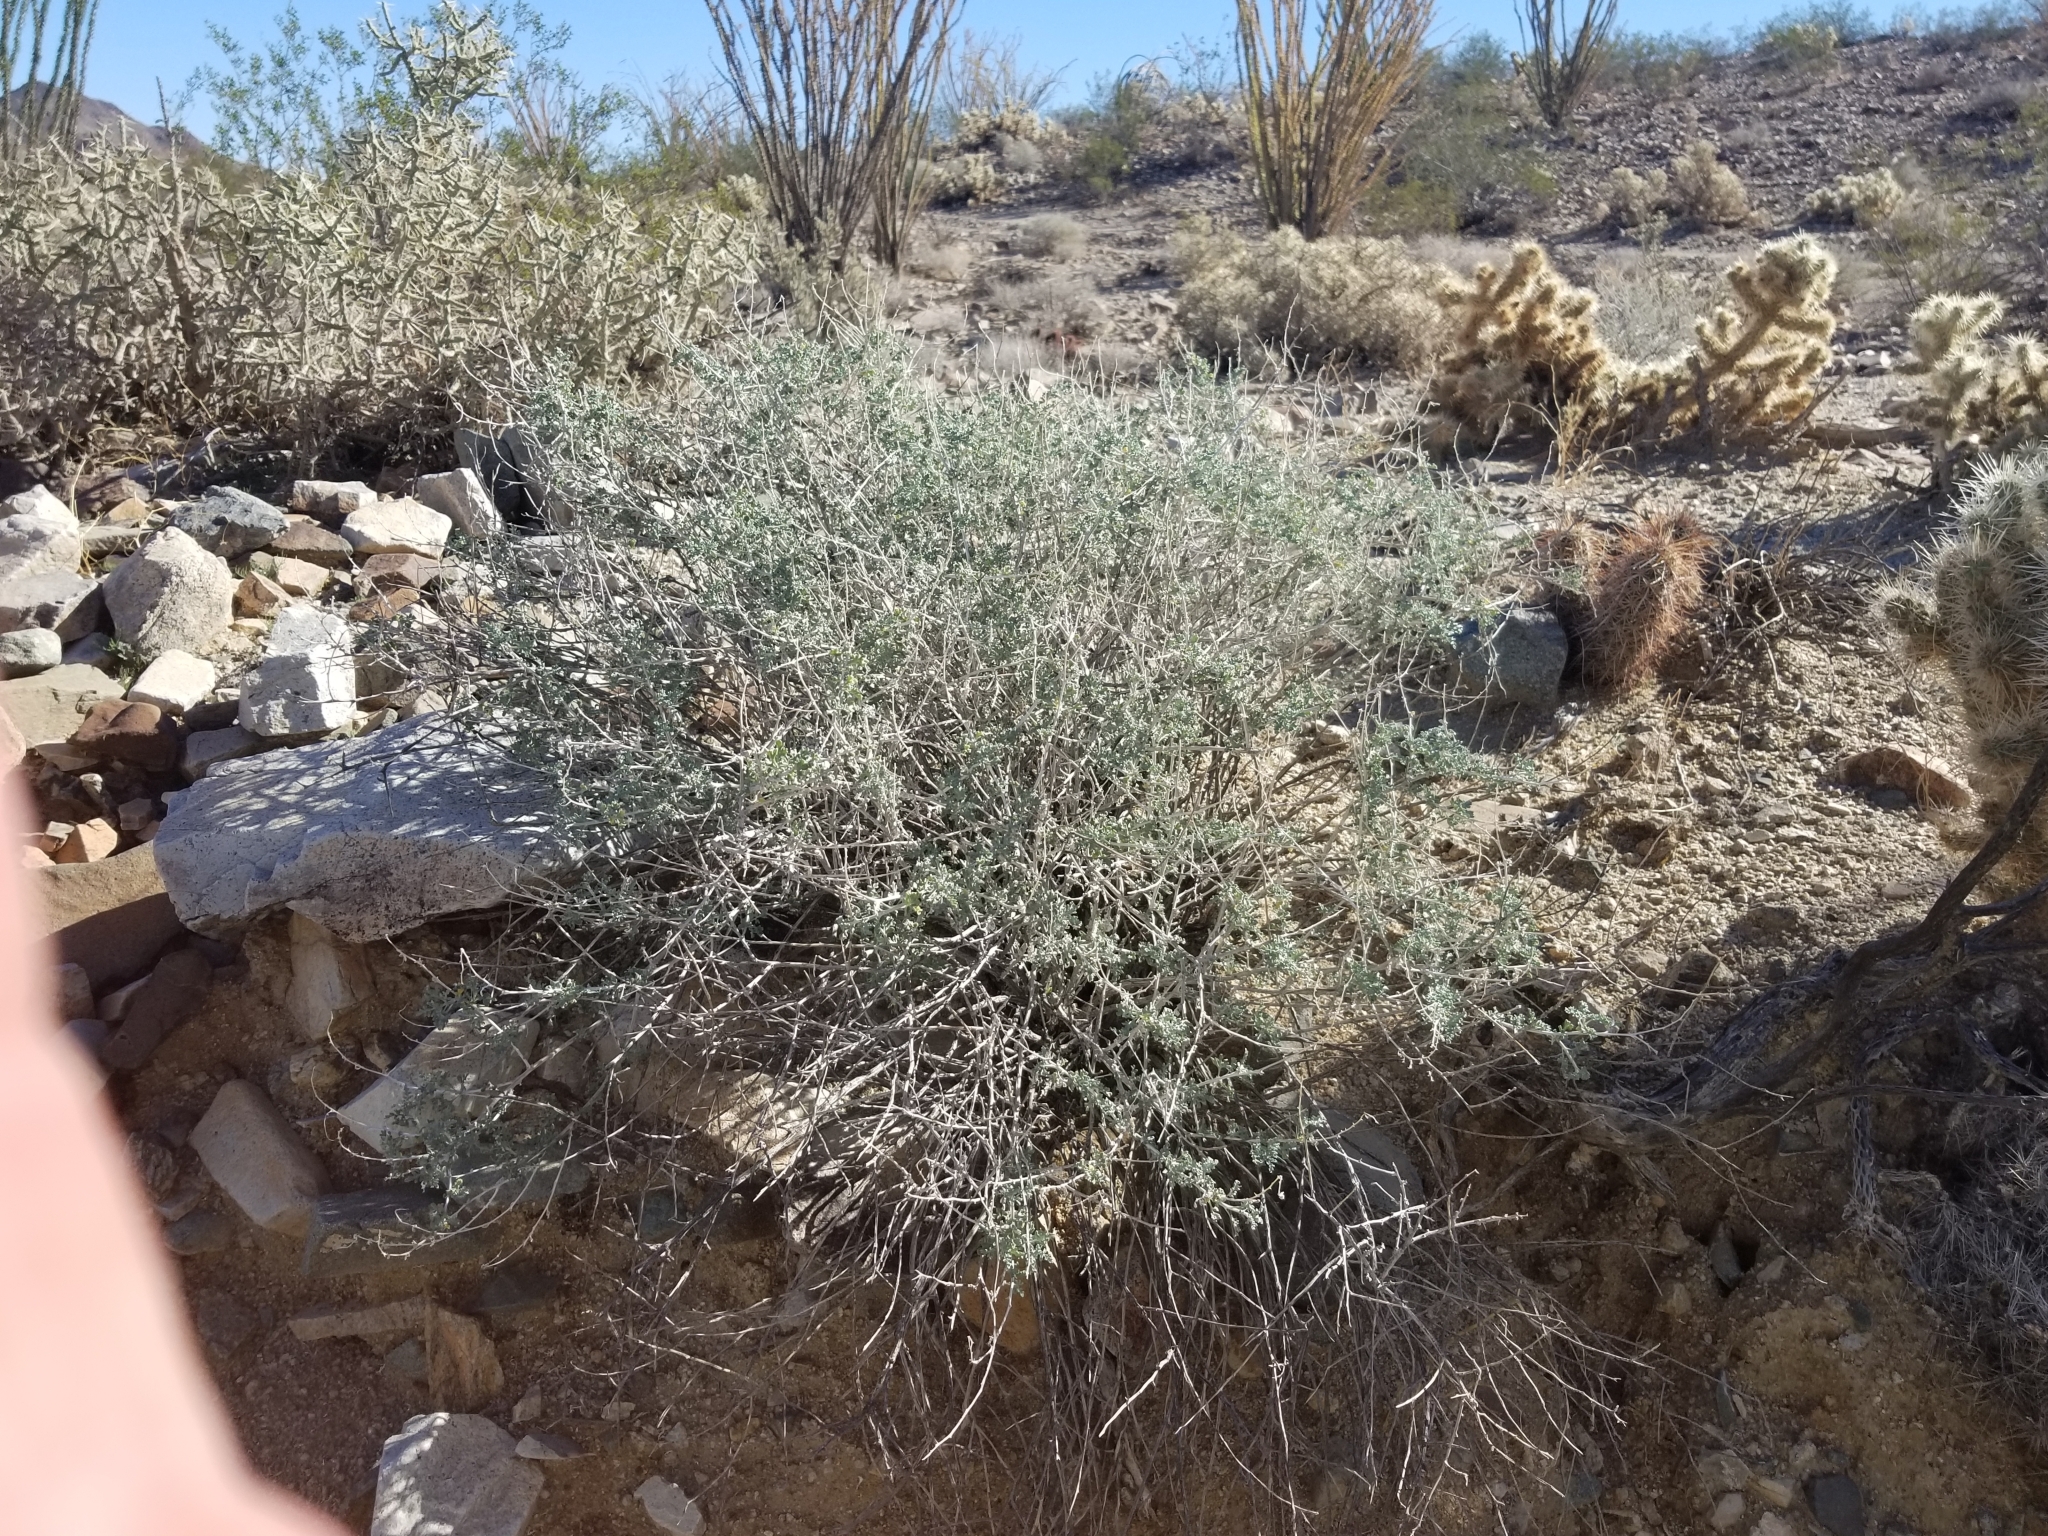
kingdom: Plantae
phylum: Tracheophyta
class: Magnoliopsida
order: Asterales
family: Asteraceae
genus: Ambrosia
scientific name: Ambrosia dumosa
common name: Bur-sage
